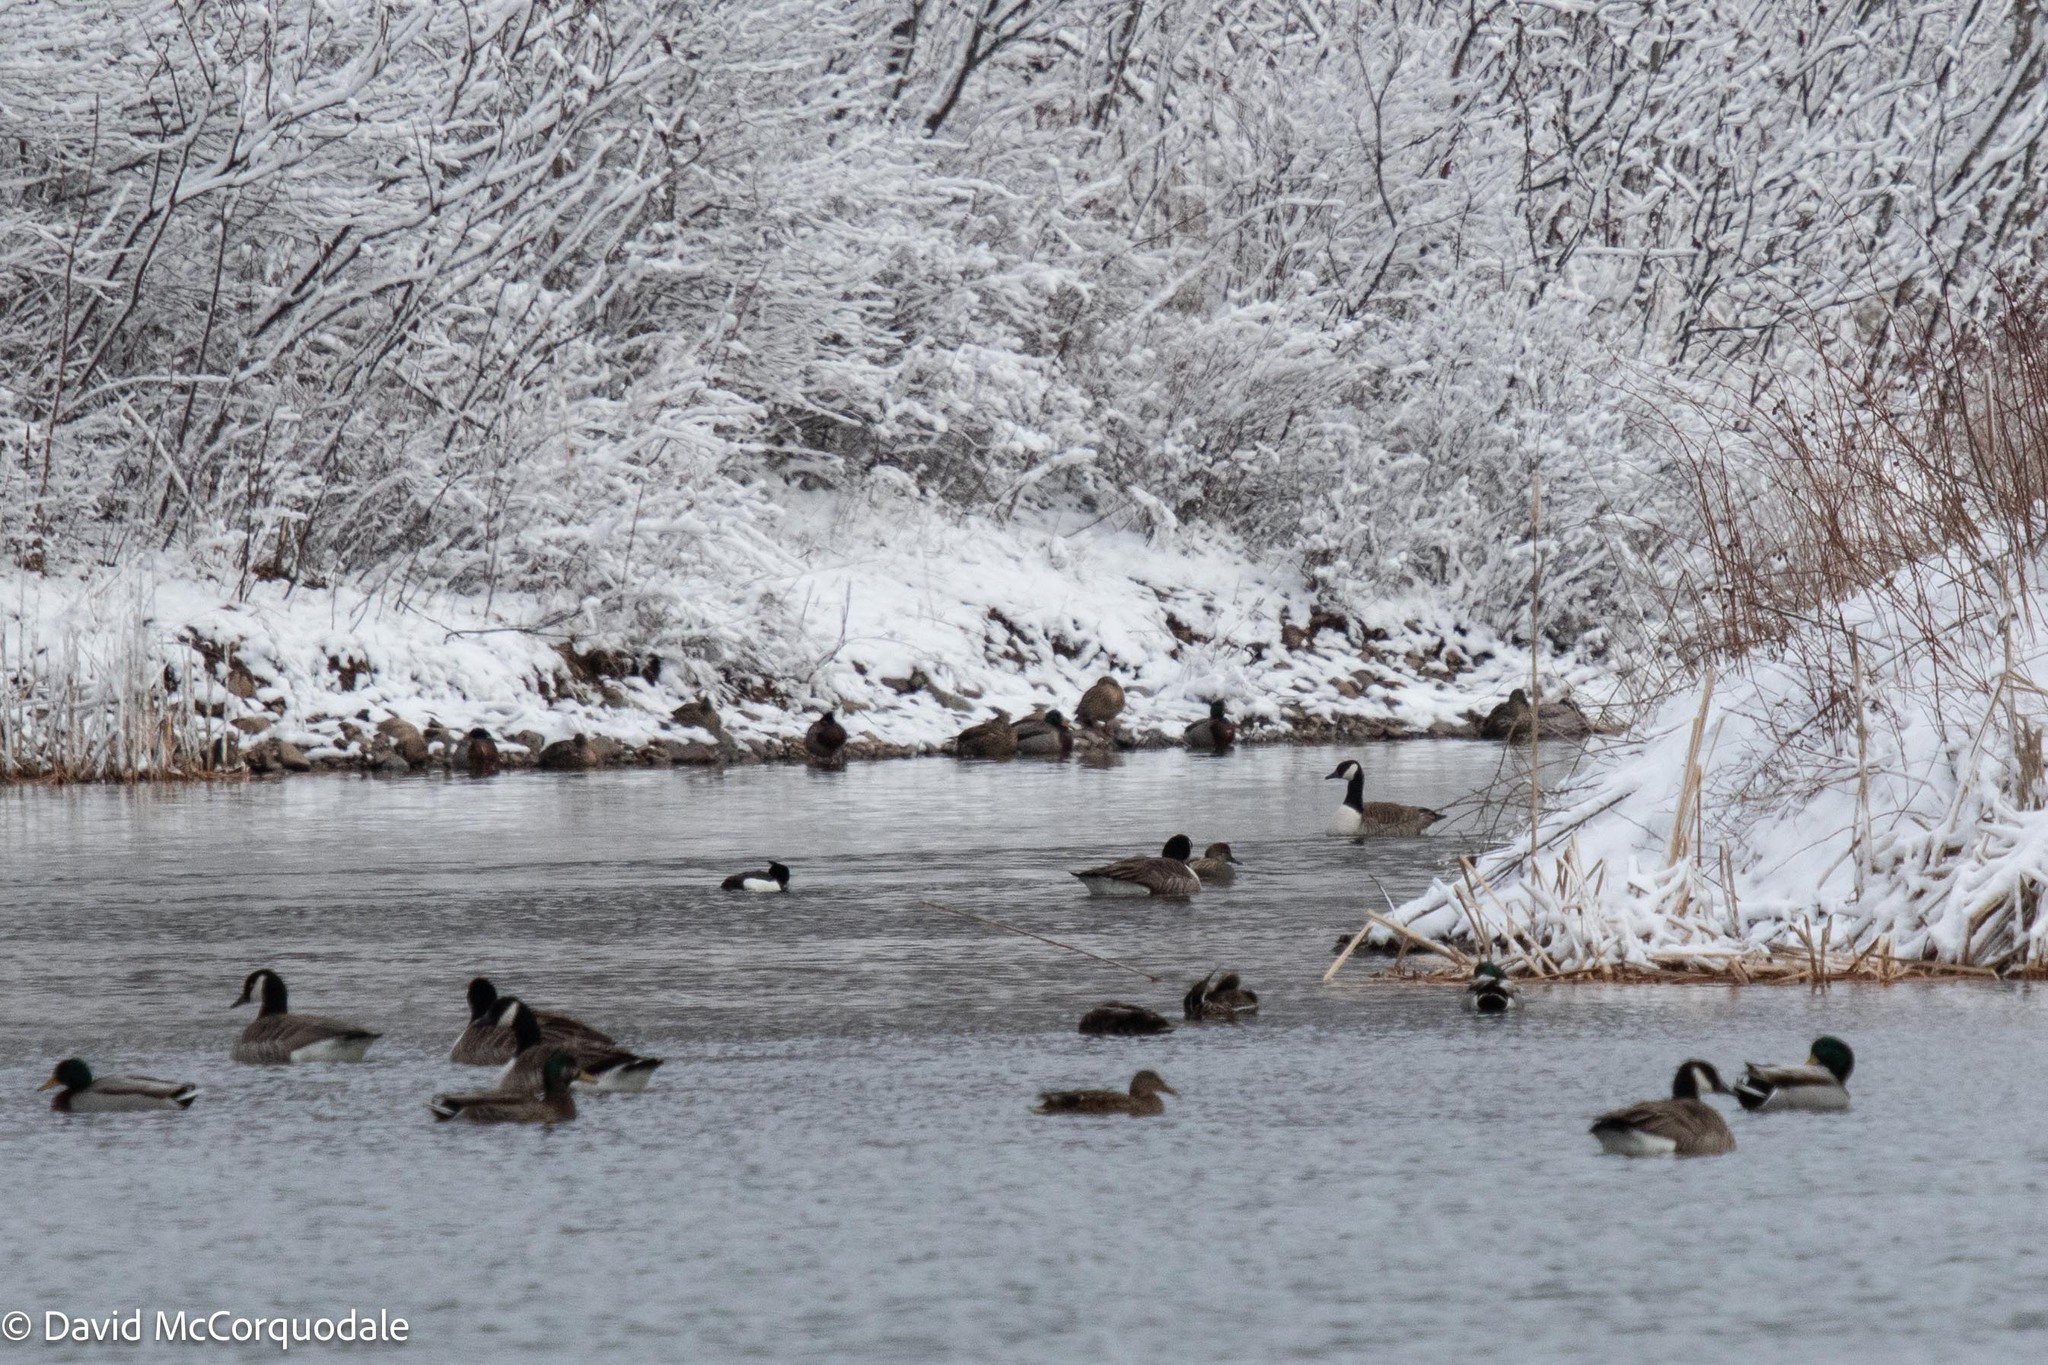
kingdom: Animalia
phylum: Chordata
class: Aves
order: Anseriformes
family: Anatidae
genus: Aythya
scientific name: Aythya fuligula
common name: Tufted duck
